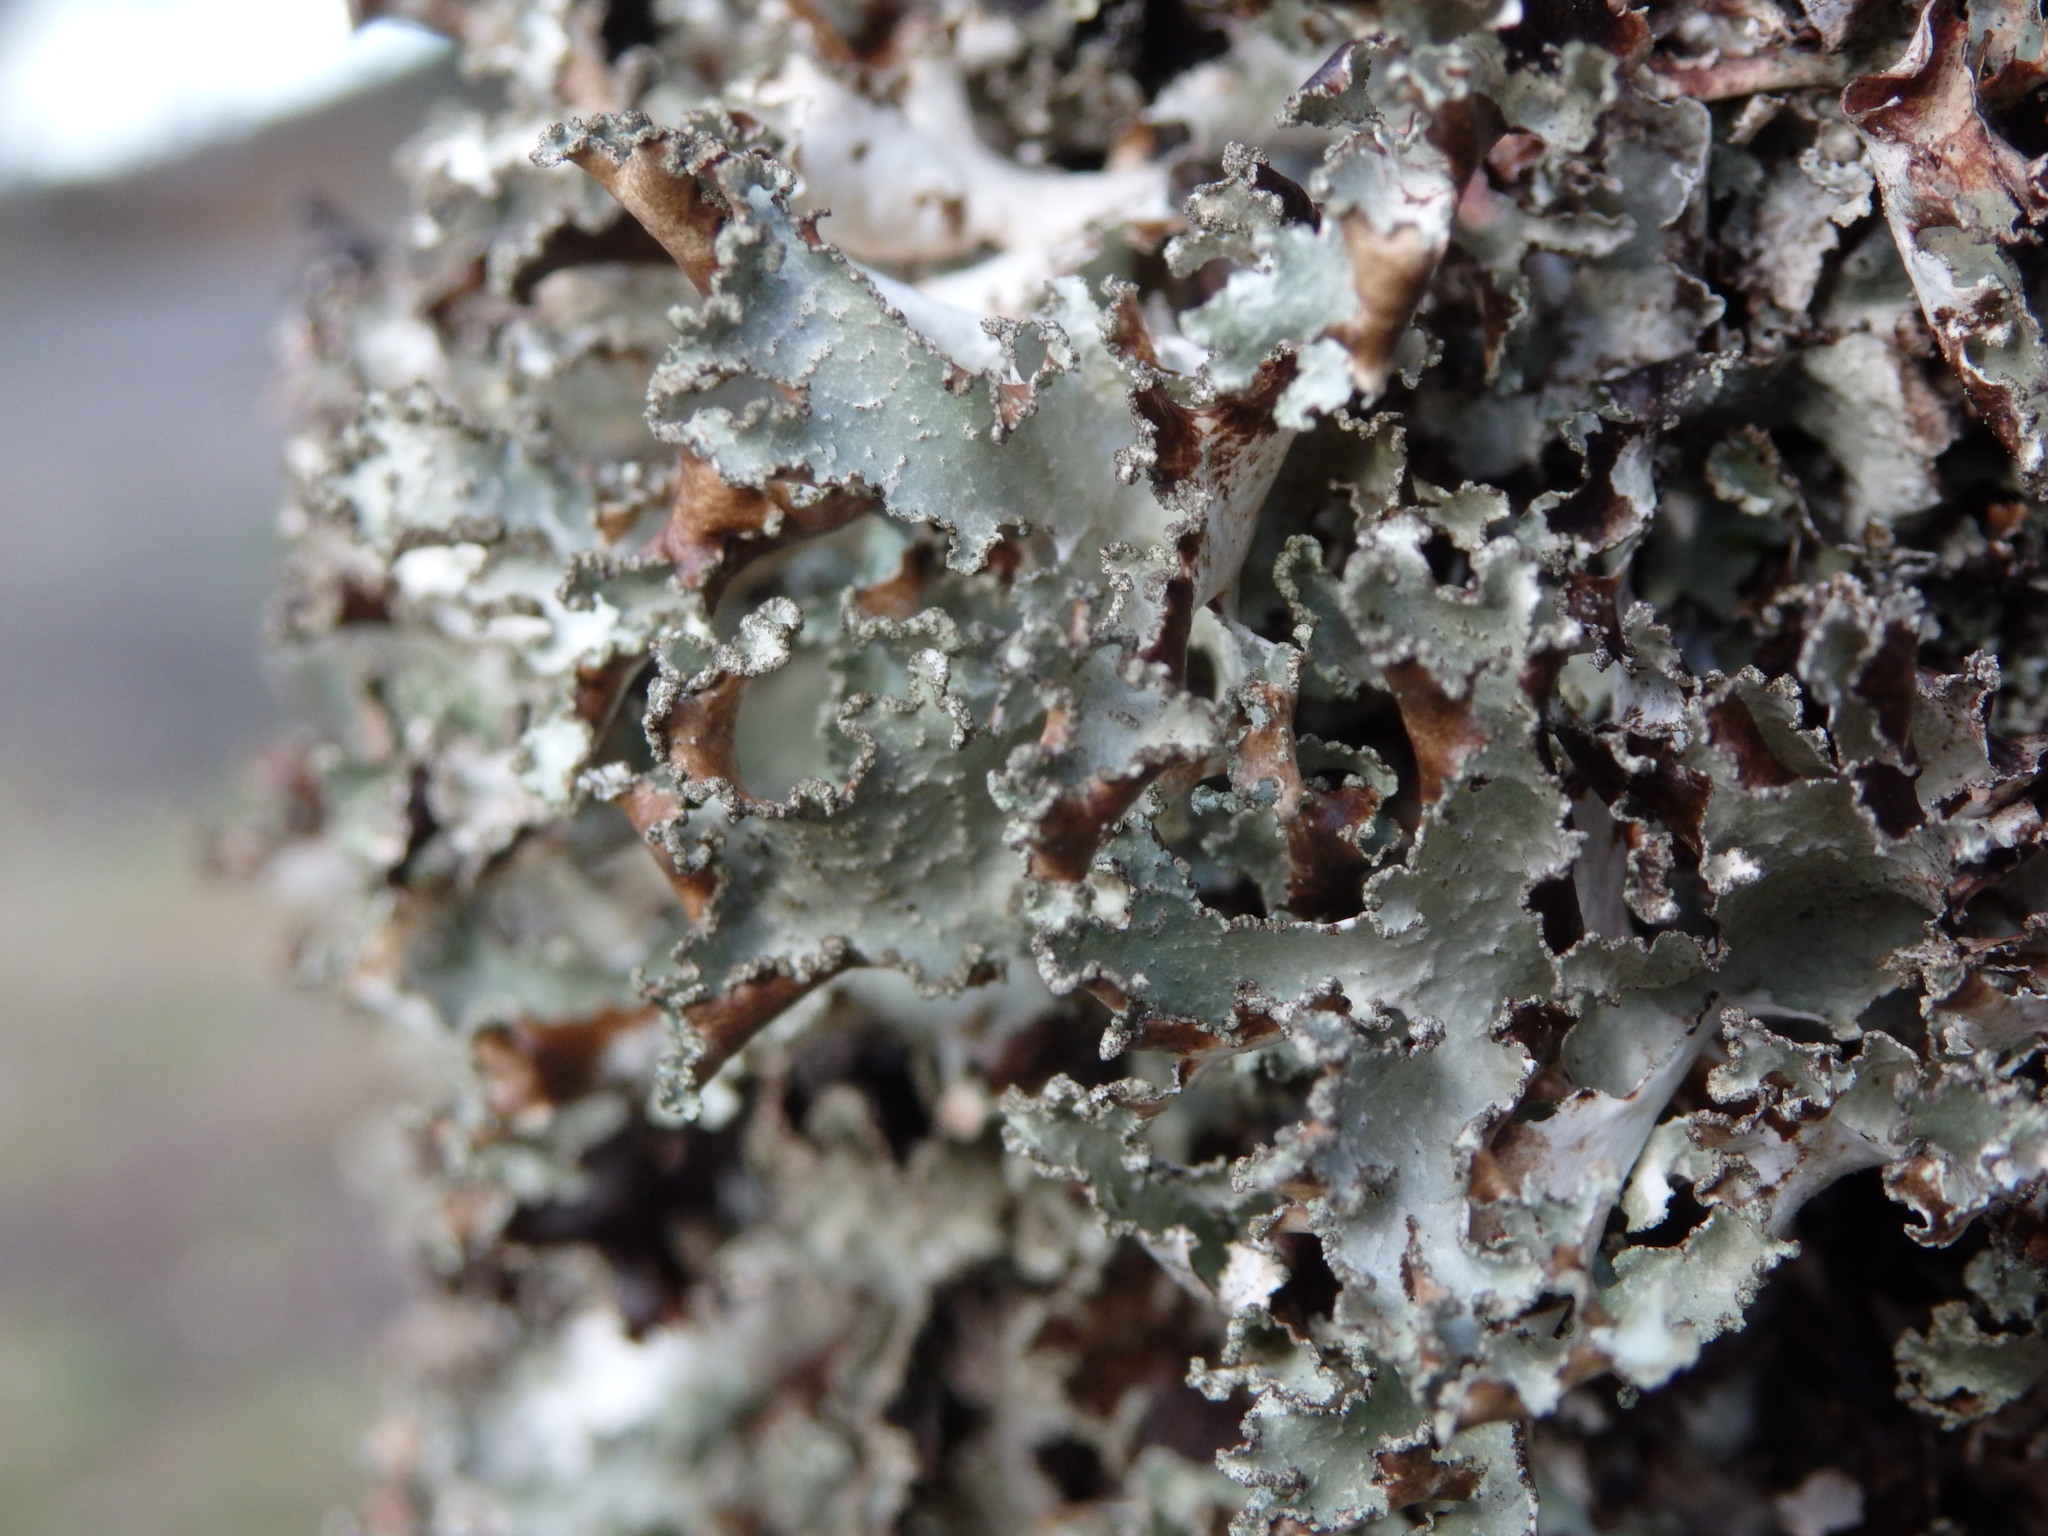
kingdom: Fungi
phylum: Ascomycota
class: Lecanoromycetes
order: Lecanorales
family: Parmeliaceae
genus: Platismatia
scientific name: Platismatia glauca
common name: Varied rag lichen
